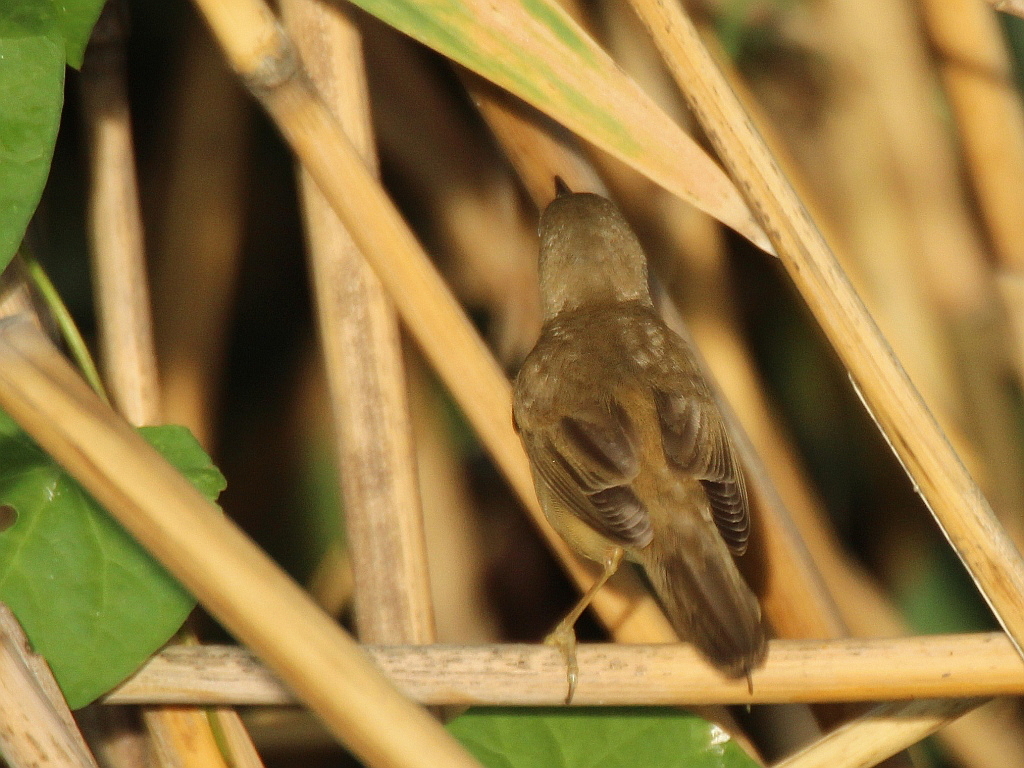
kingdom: Animalia
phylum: Chordata
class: Aves
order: Passeriformes
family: Acrocephalidae
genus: Acrocephalus
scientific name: Acrocephalus palustris
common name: Marsh warbler
